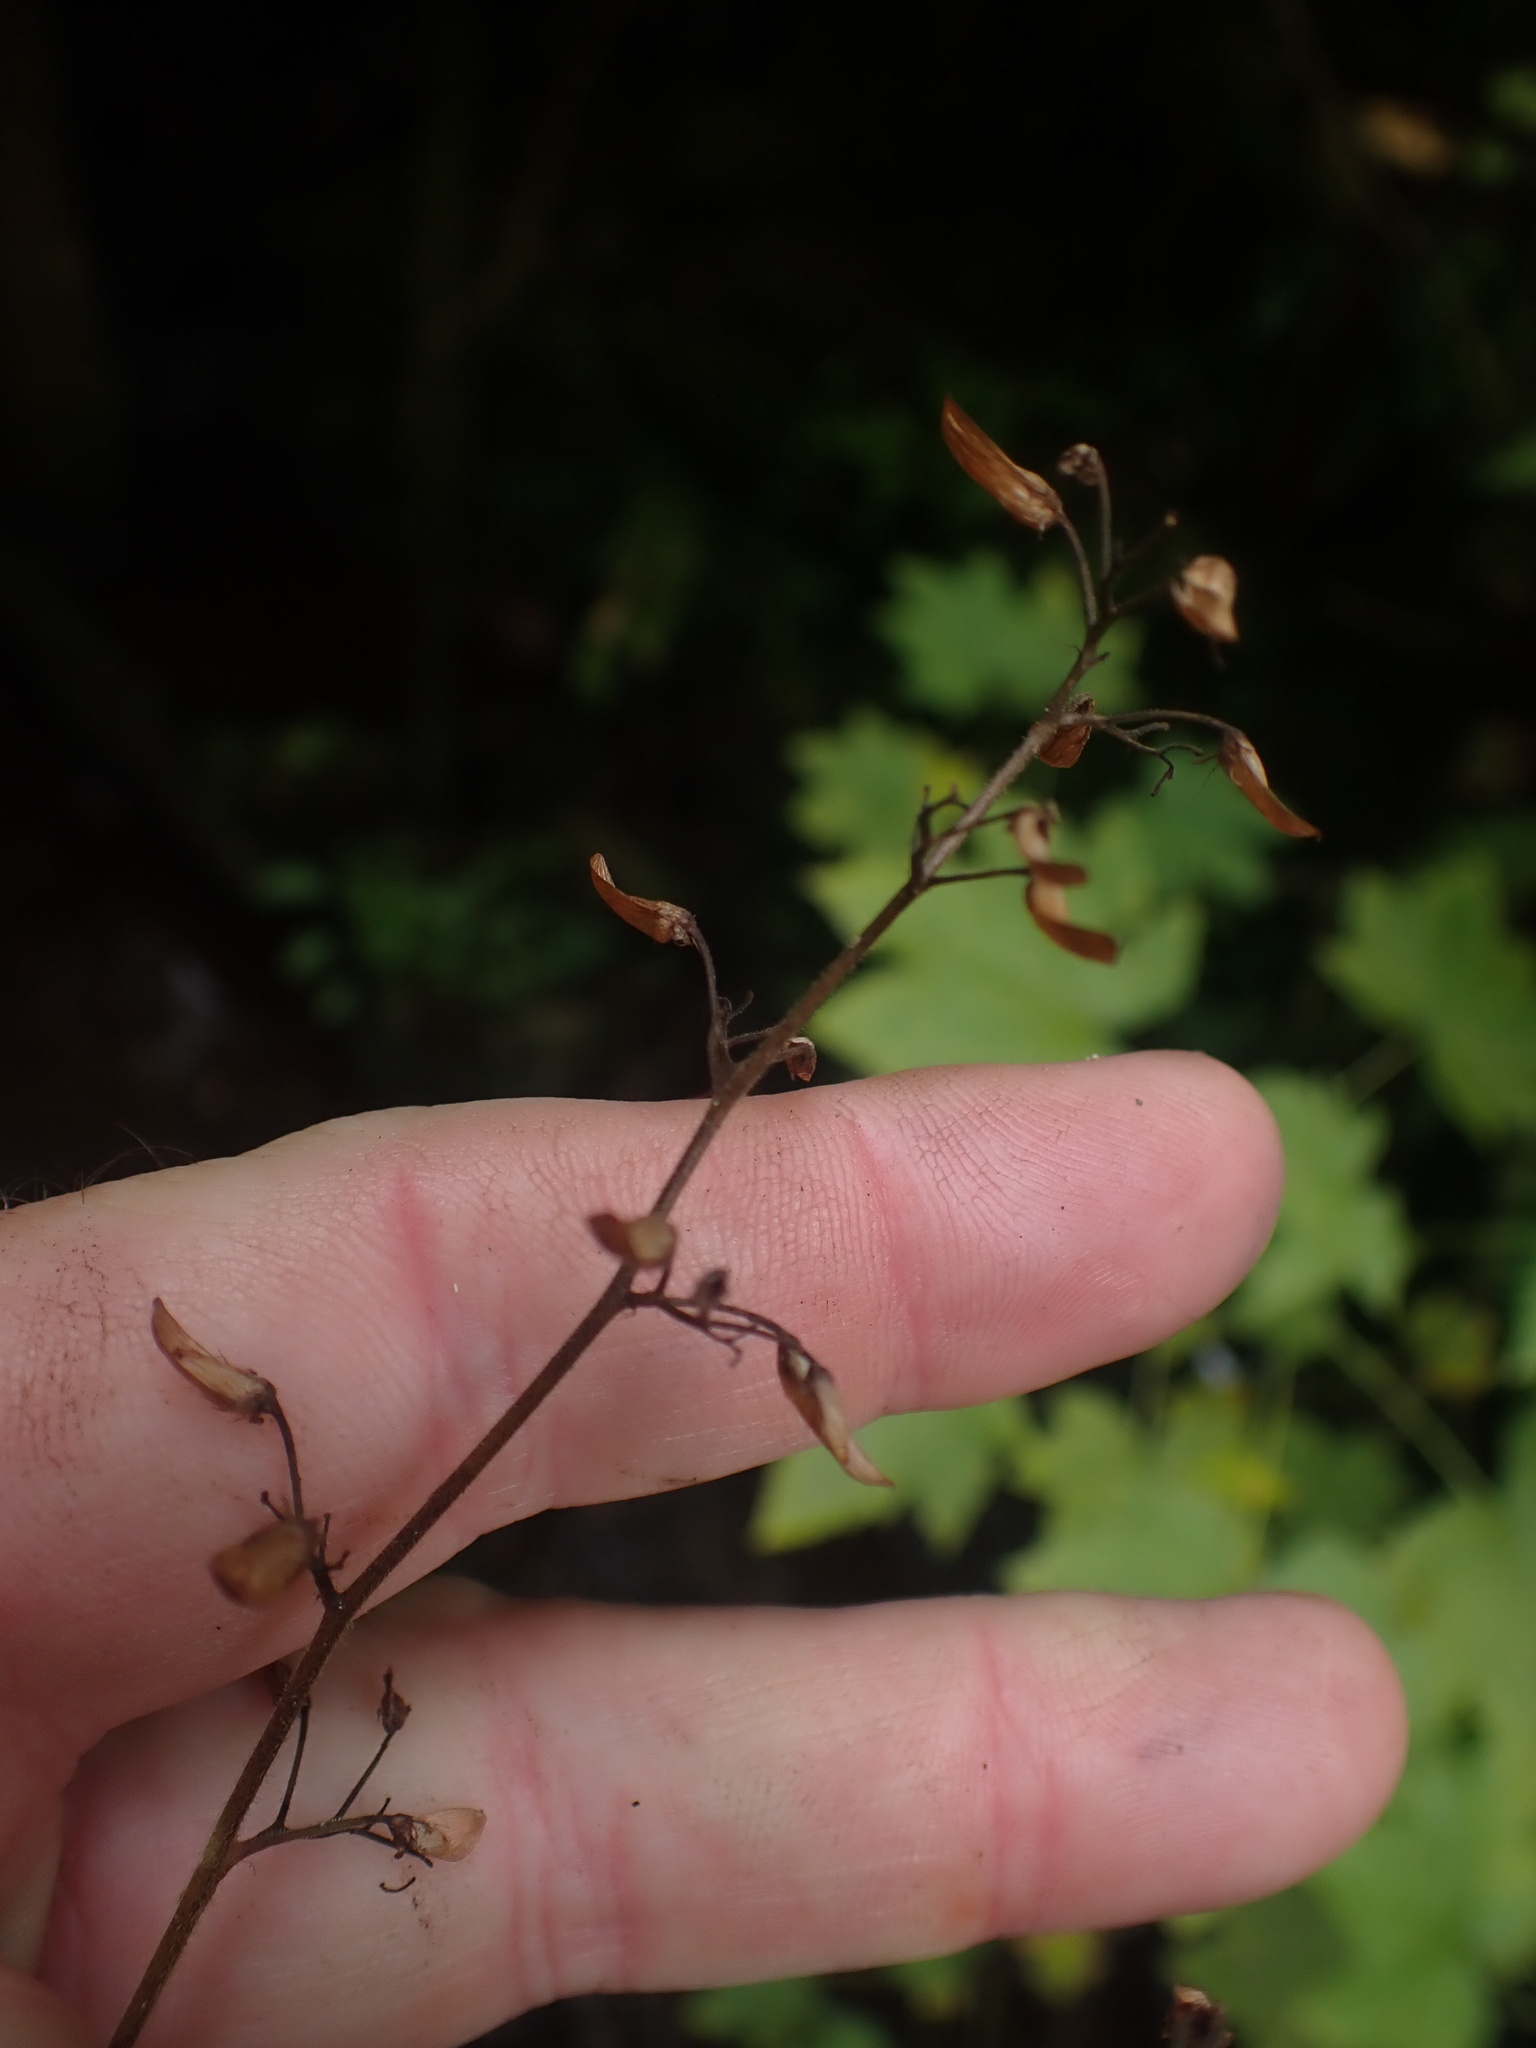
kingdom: Plantae
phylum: Tracheophyta
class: Magnoliopsida
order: Saxifragales
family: Saxifragaceae
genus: Tiarella
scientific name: Tiarella trifoliata
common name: Sugar-scoop
